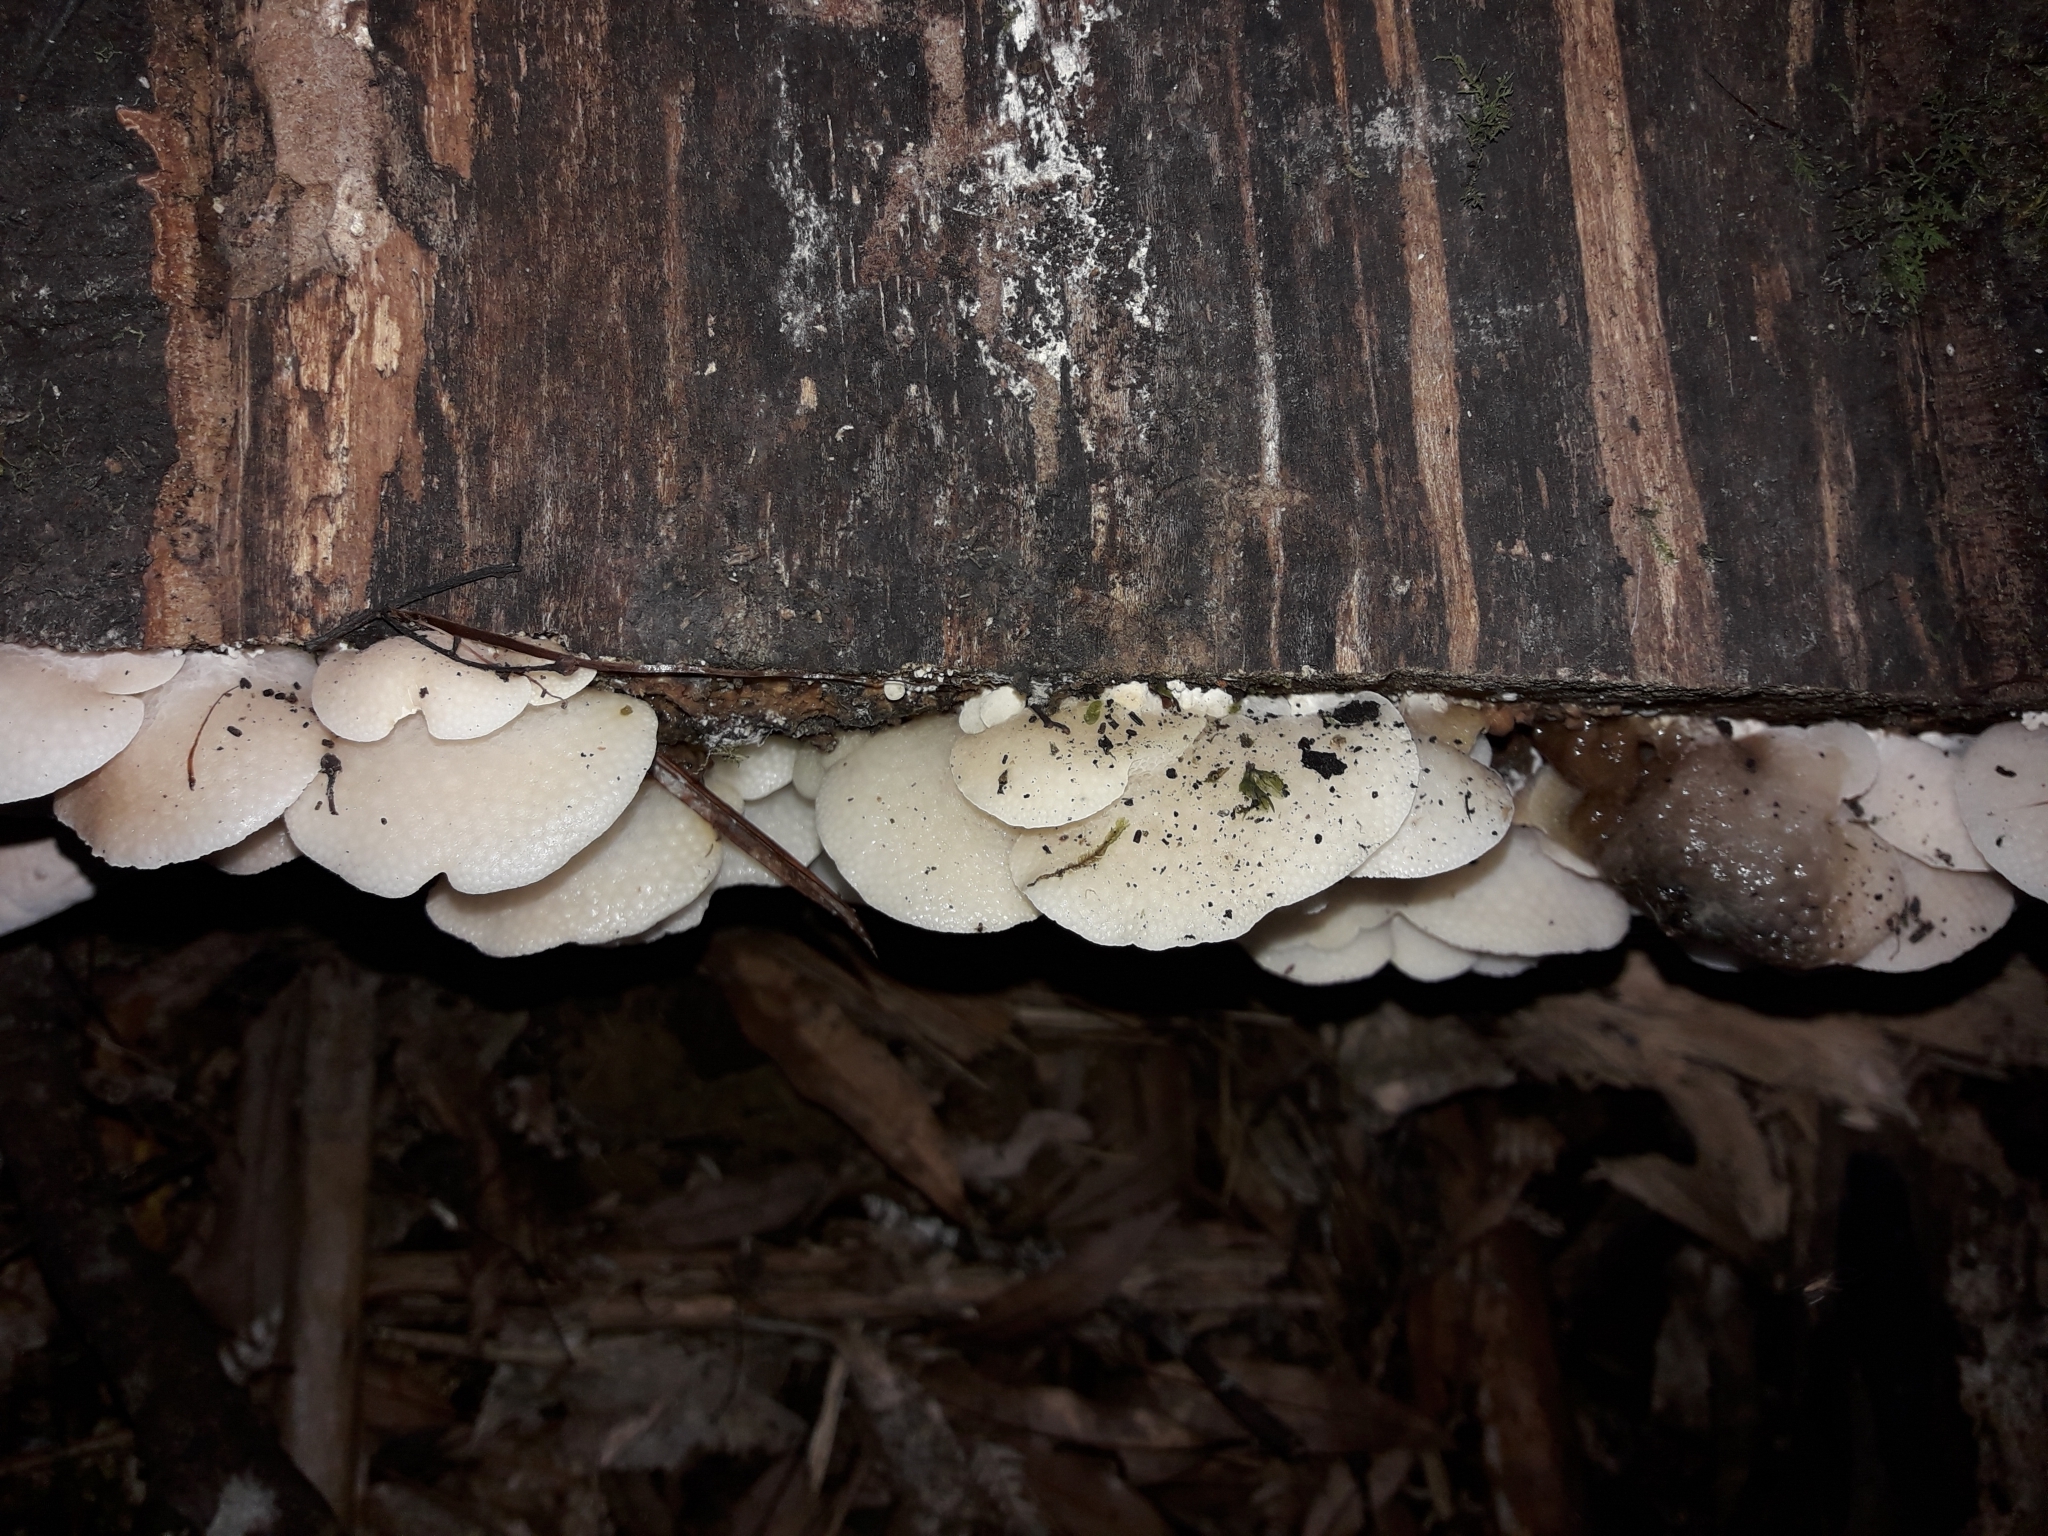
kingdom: Fungi
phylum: Basidiomycota
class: Agaricomycetes
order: Agaricales
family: Mycenaceae
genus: Favolaschia
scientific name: Favolaschia pustulosa
